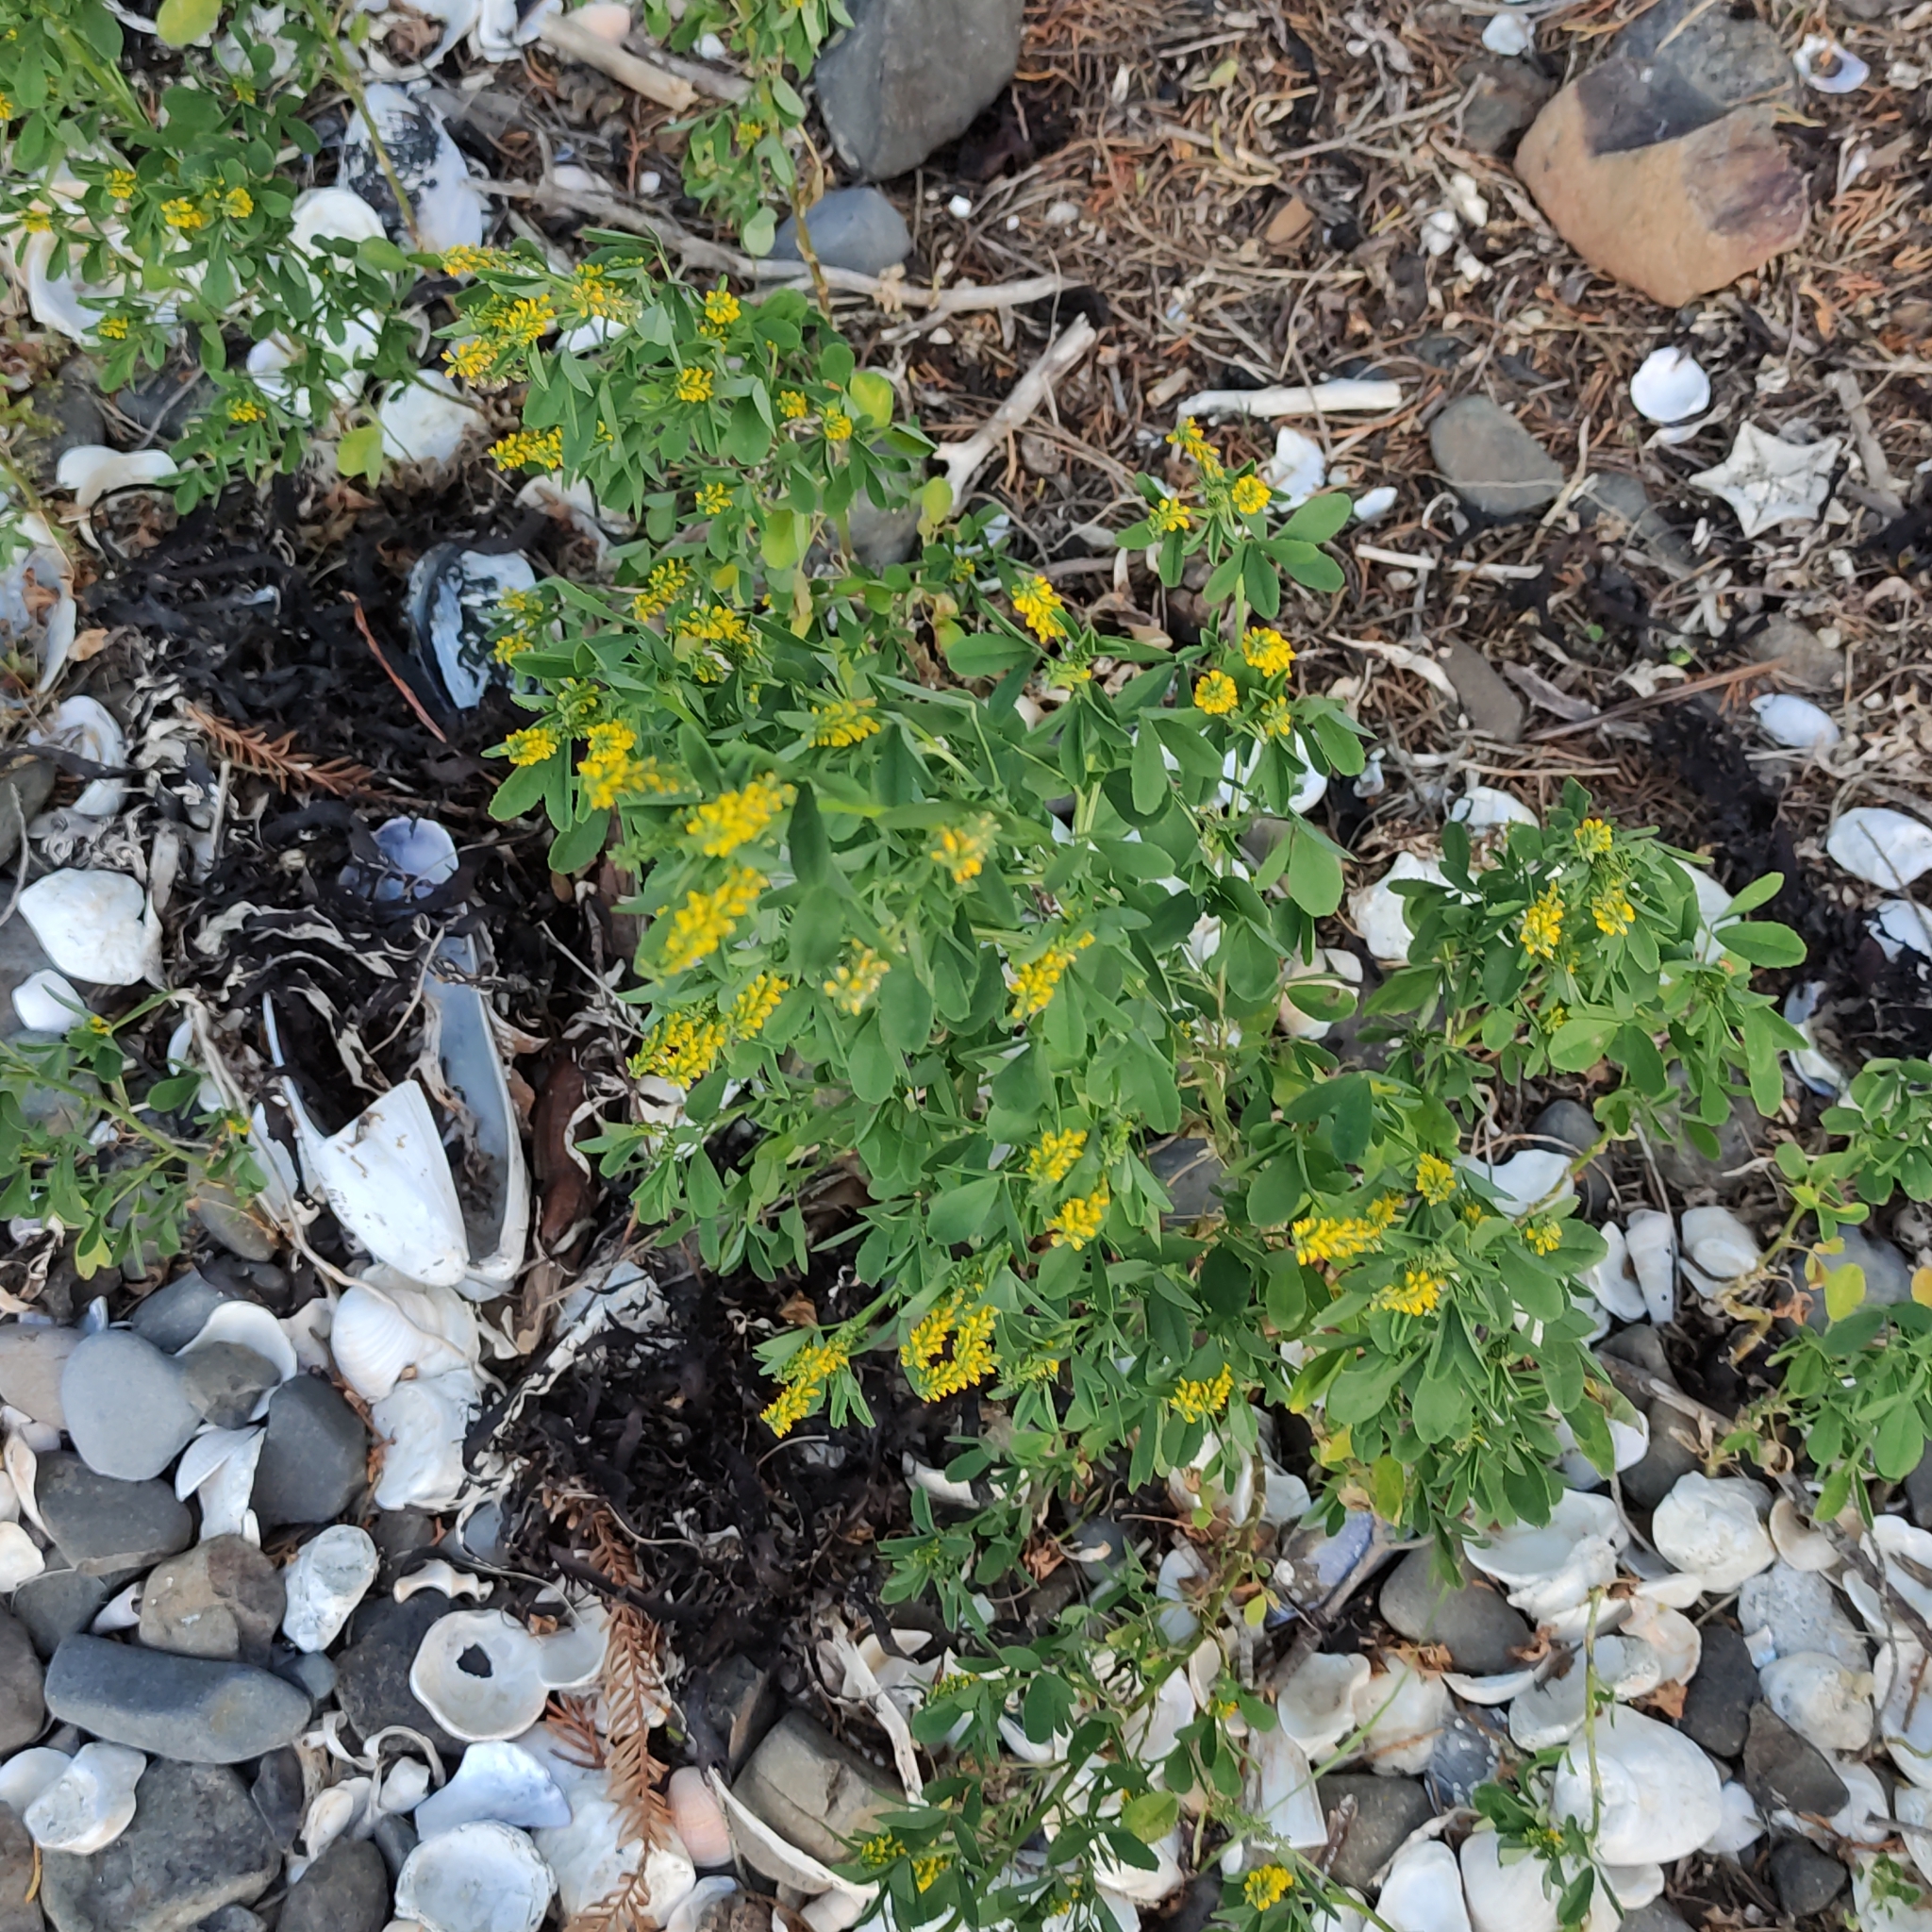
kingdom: Plantae
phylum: Tracheophyta
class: Magnoliopsida
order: Fabales
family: Fabaceae
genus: Melilotus
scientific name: Melilotus indicus
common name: Small melilot
